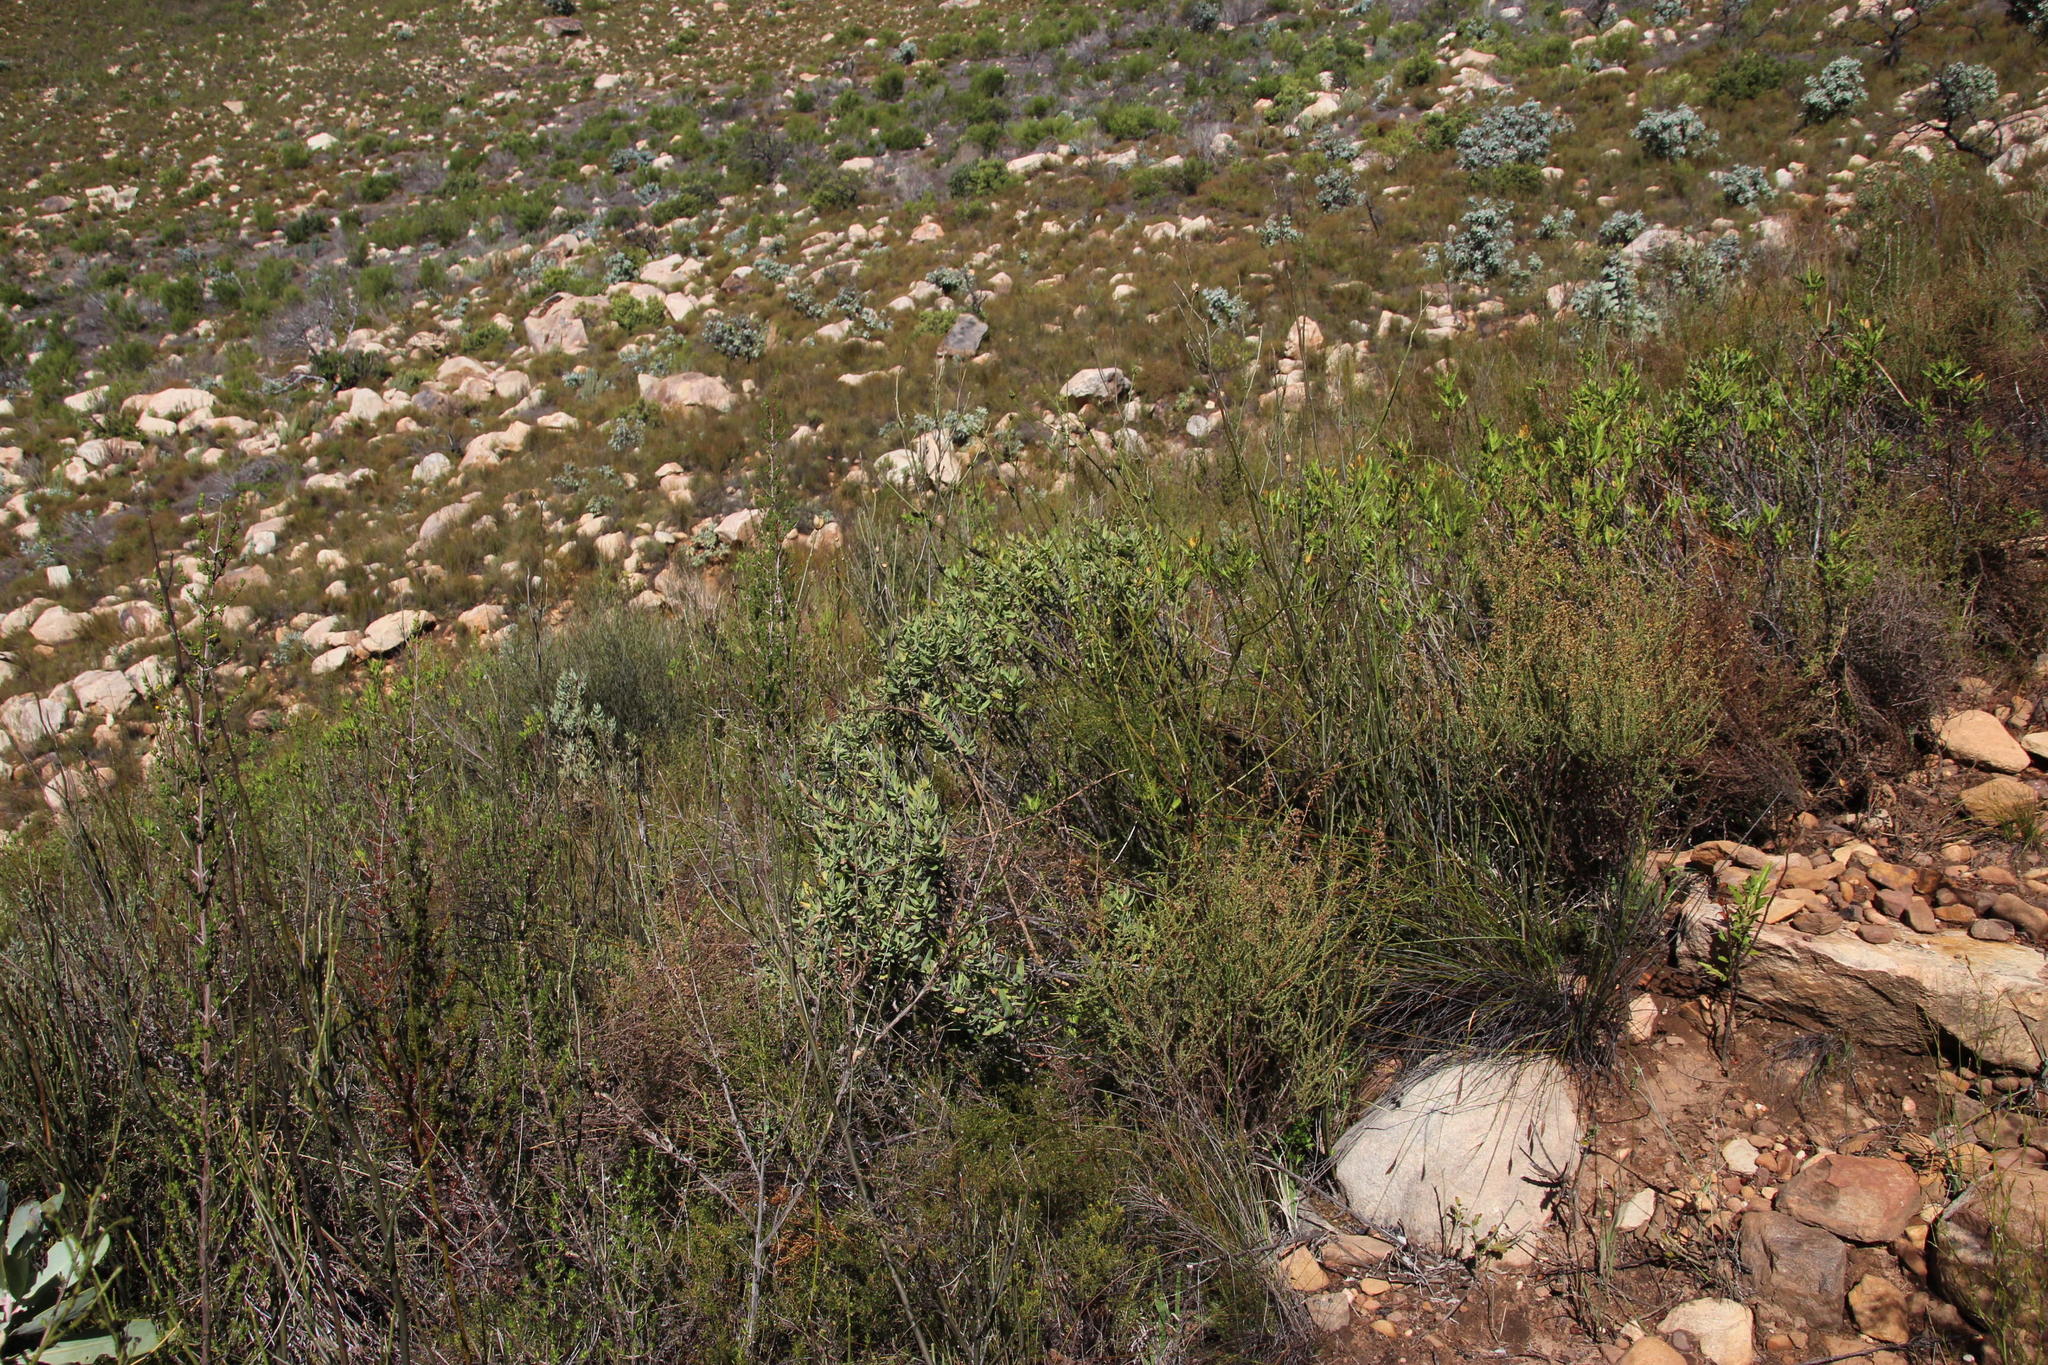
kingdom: Plantae
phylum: Tracheophyta
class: Magnoliopsida
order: Solanales
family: Montiniaceae
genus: Montinia
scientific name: Montinia caryophyllacea
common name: Wild clove-bush
